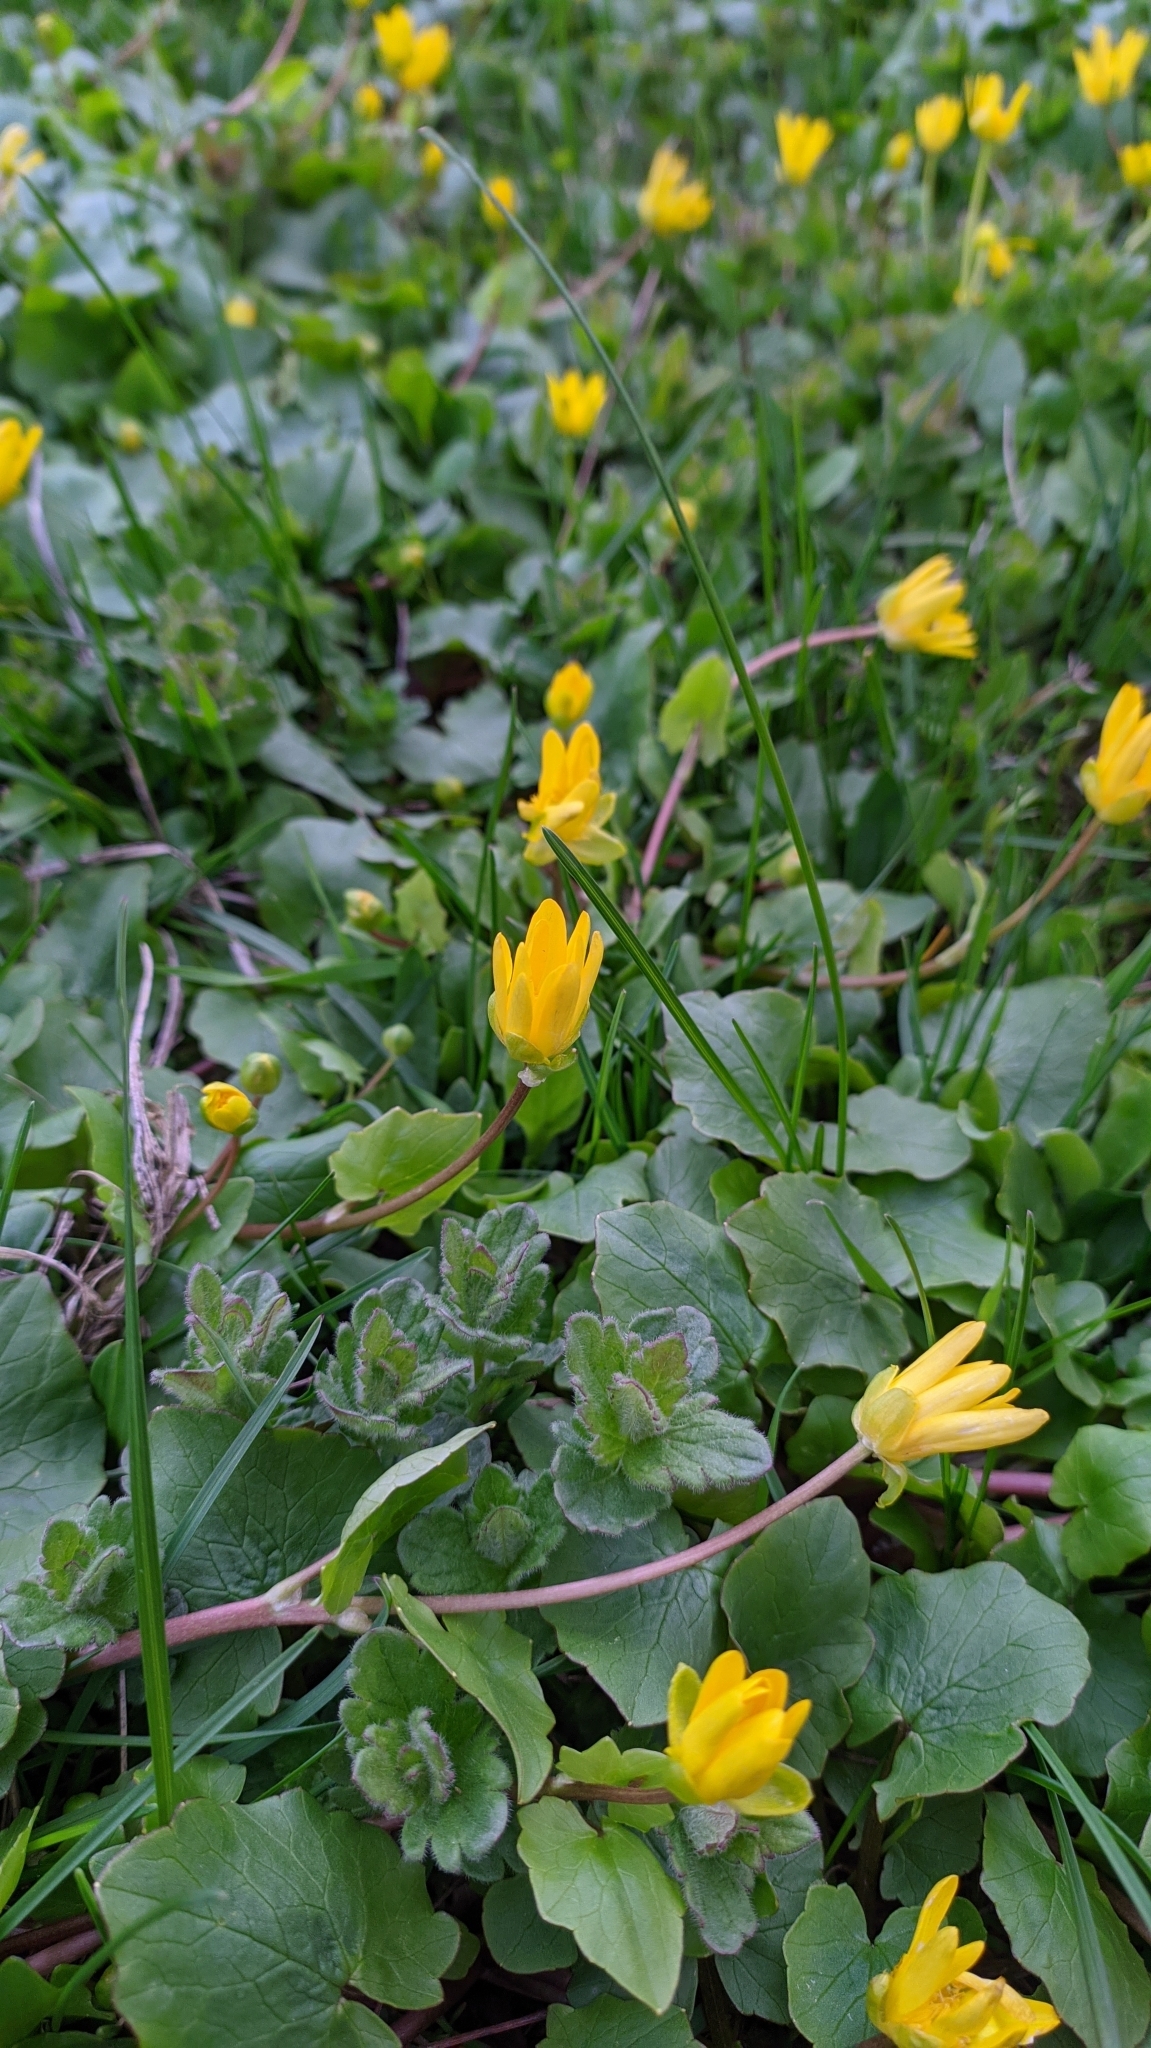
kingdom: Plantae
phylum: Tracheophyta
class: Magnoliopsida
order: Ranunculales
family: Ranunculaceae
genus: Ficaria
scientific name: Ficaria verna
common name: Lesser celandine
